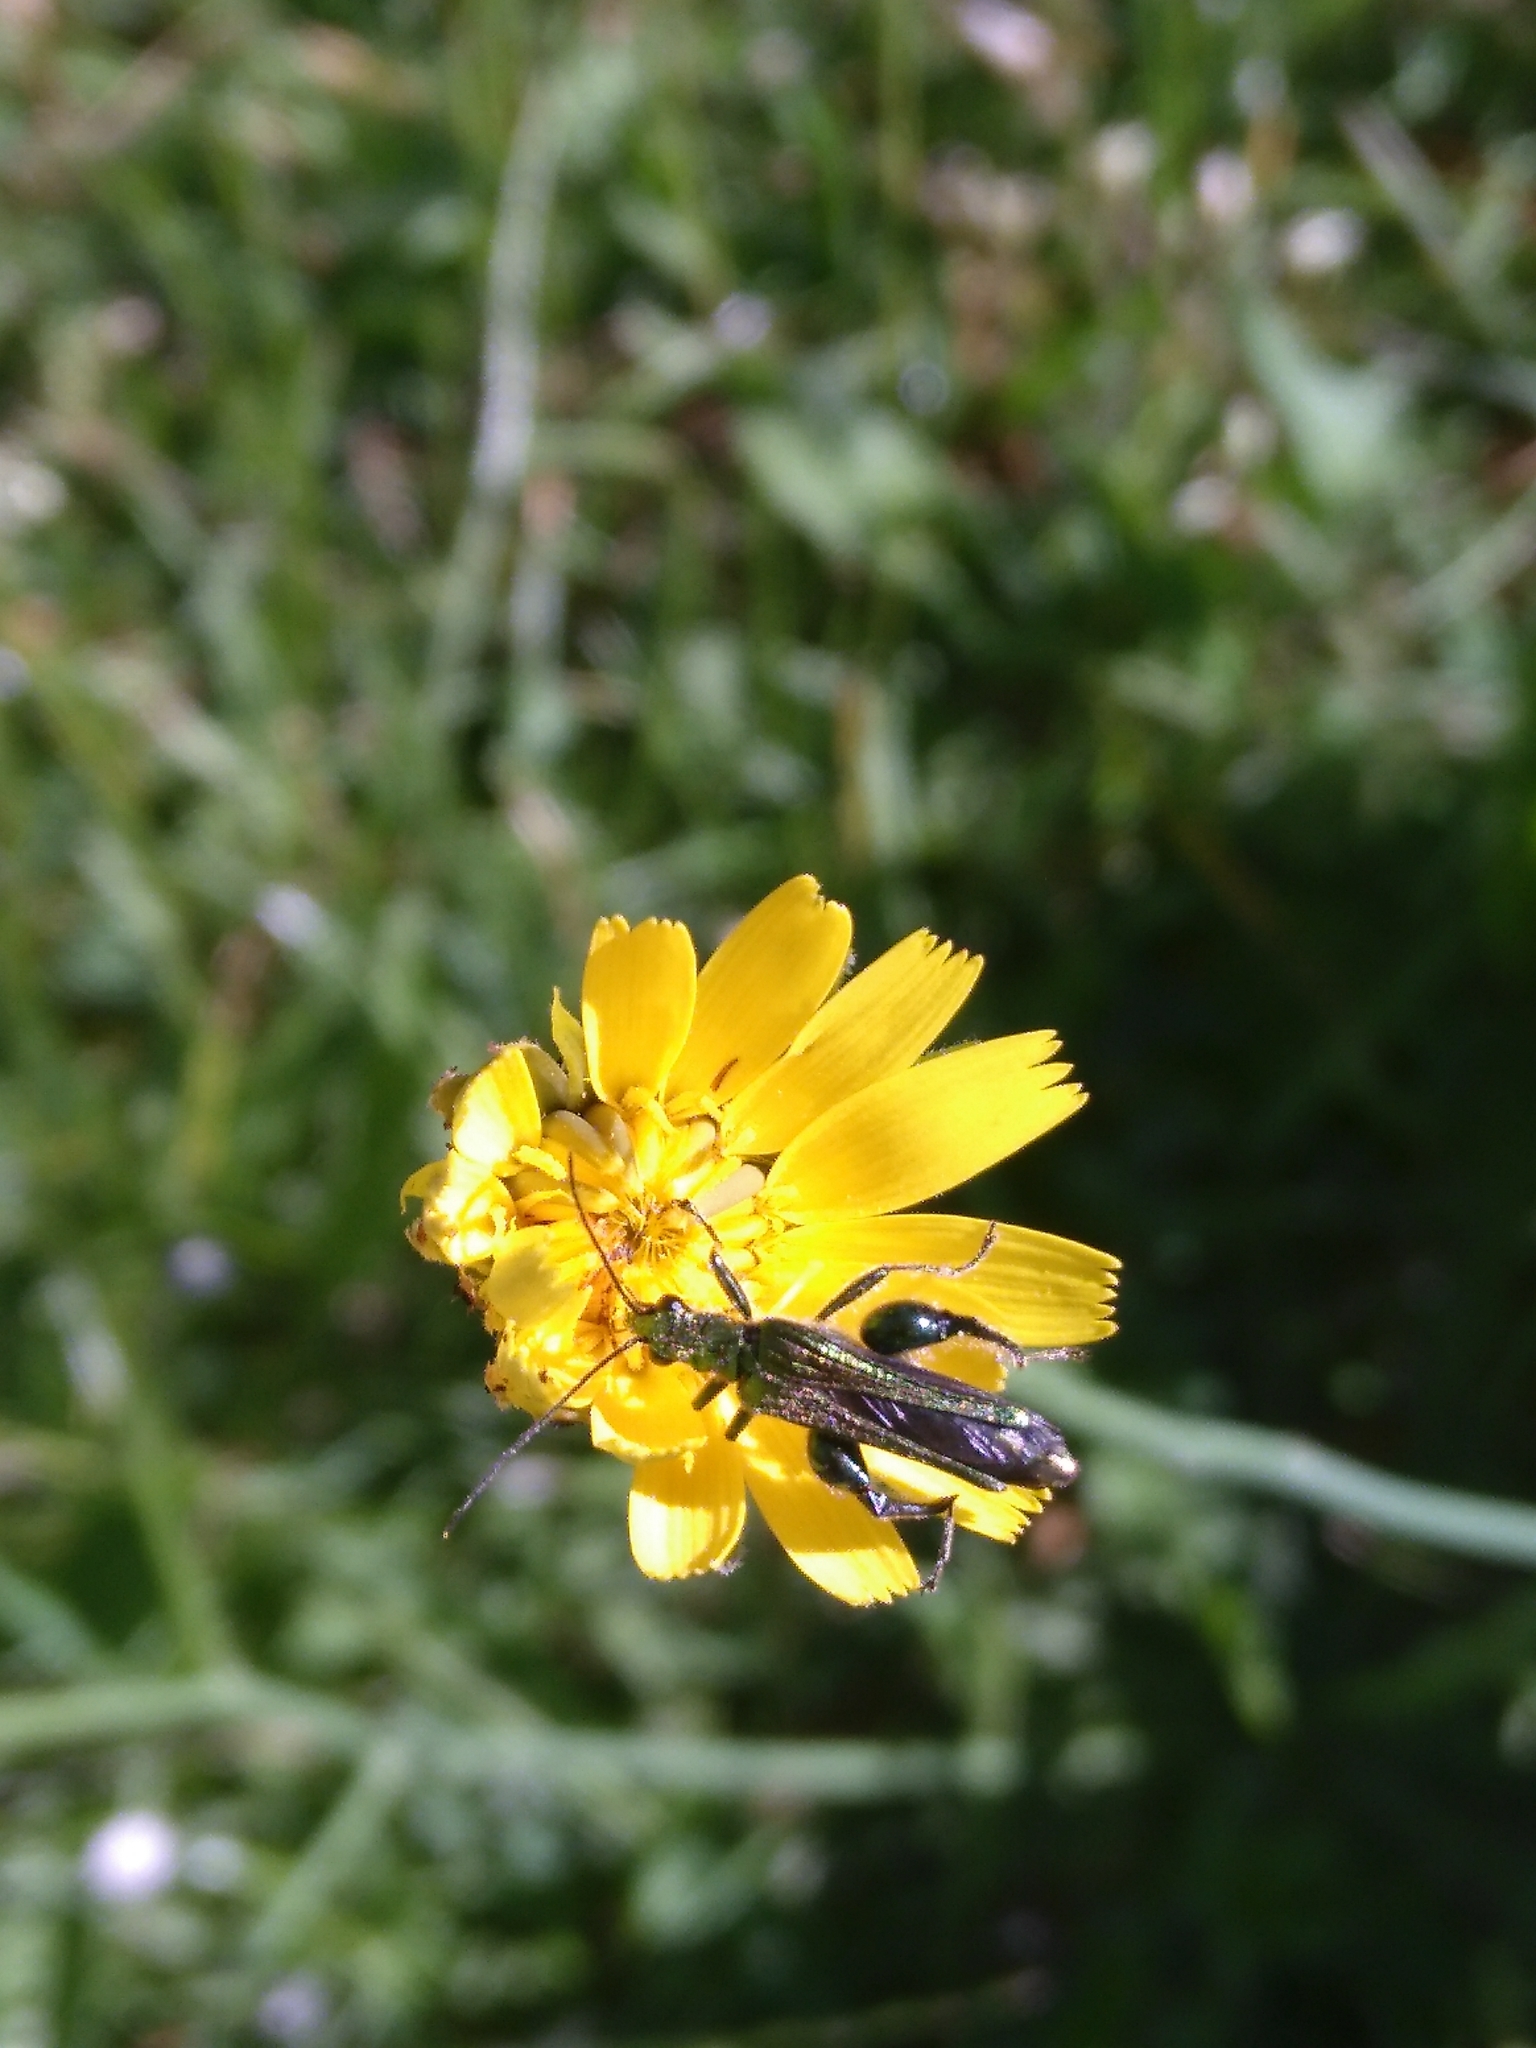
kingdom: Animalia
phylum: Arthropoda
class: Insecta
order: Coleoptera
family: Oedemeridae
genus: Oedemera
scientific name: Oedemera nobilis
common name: Swollen-thighed beetle
